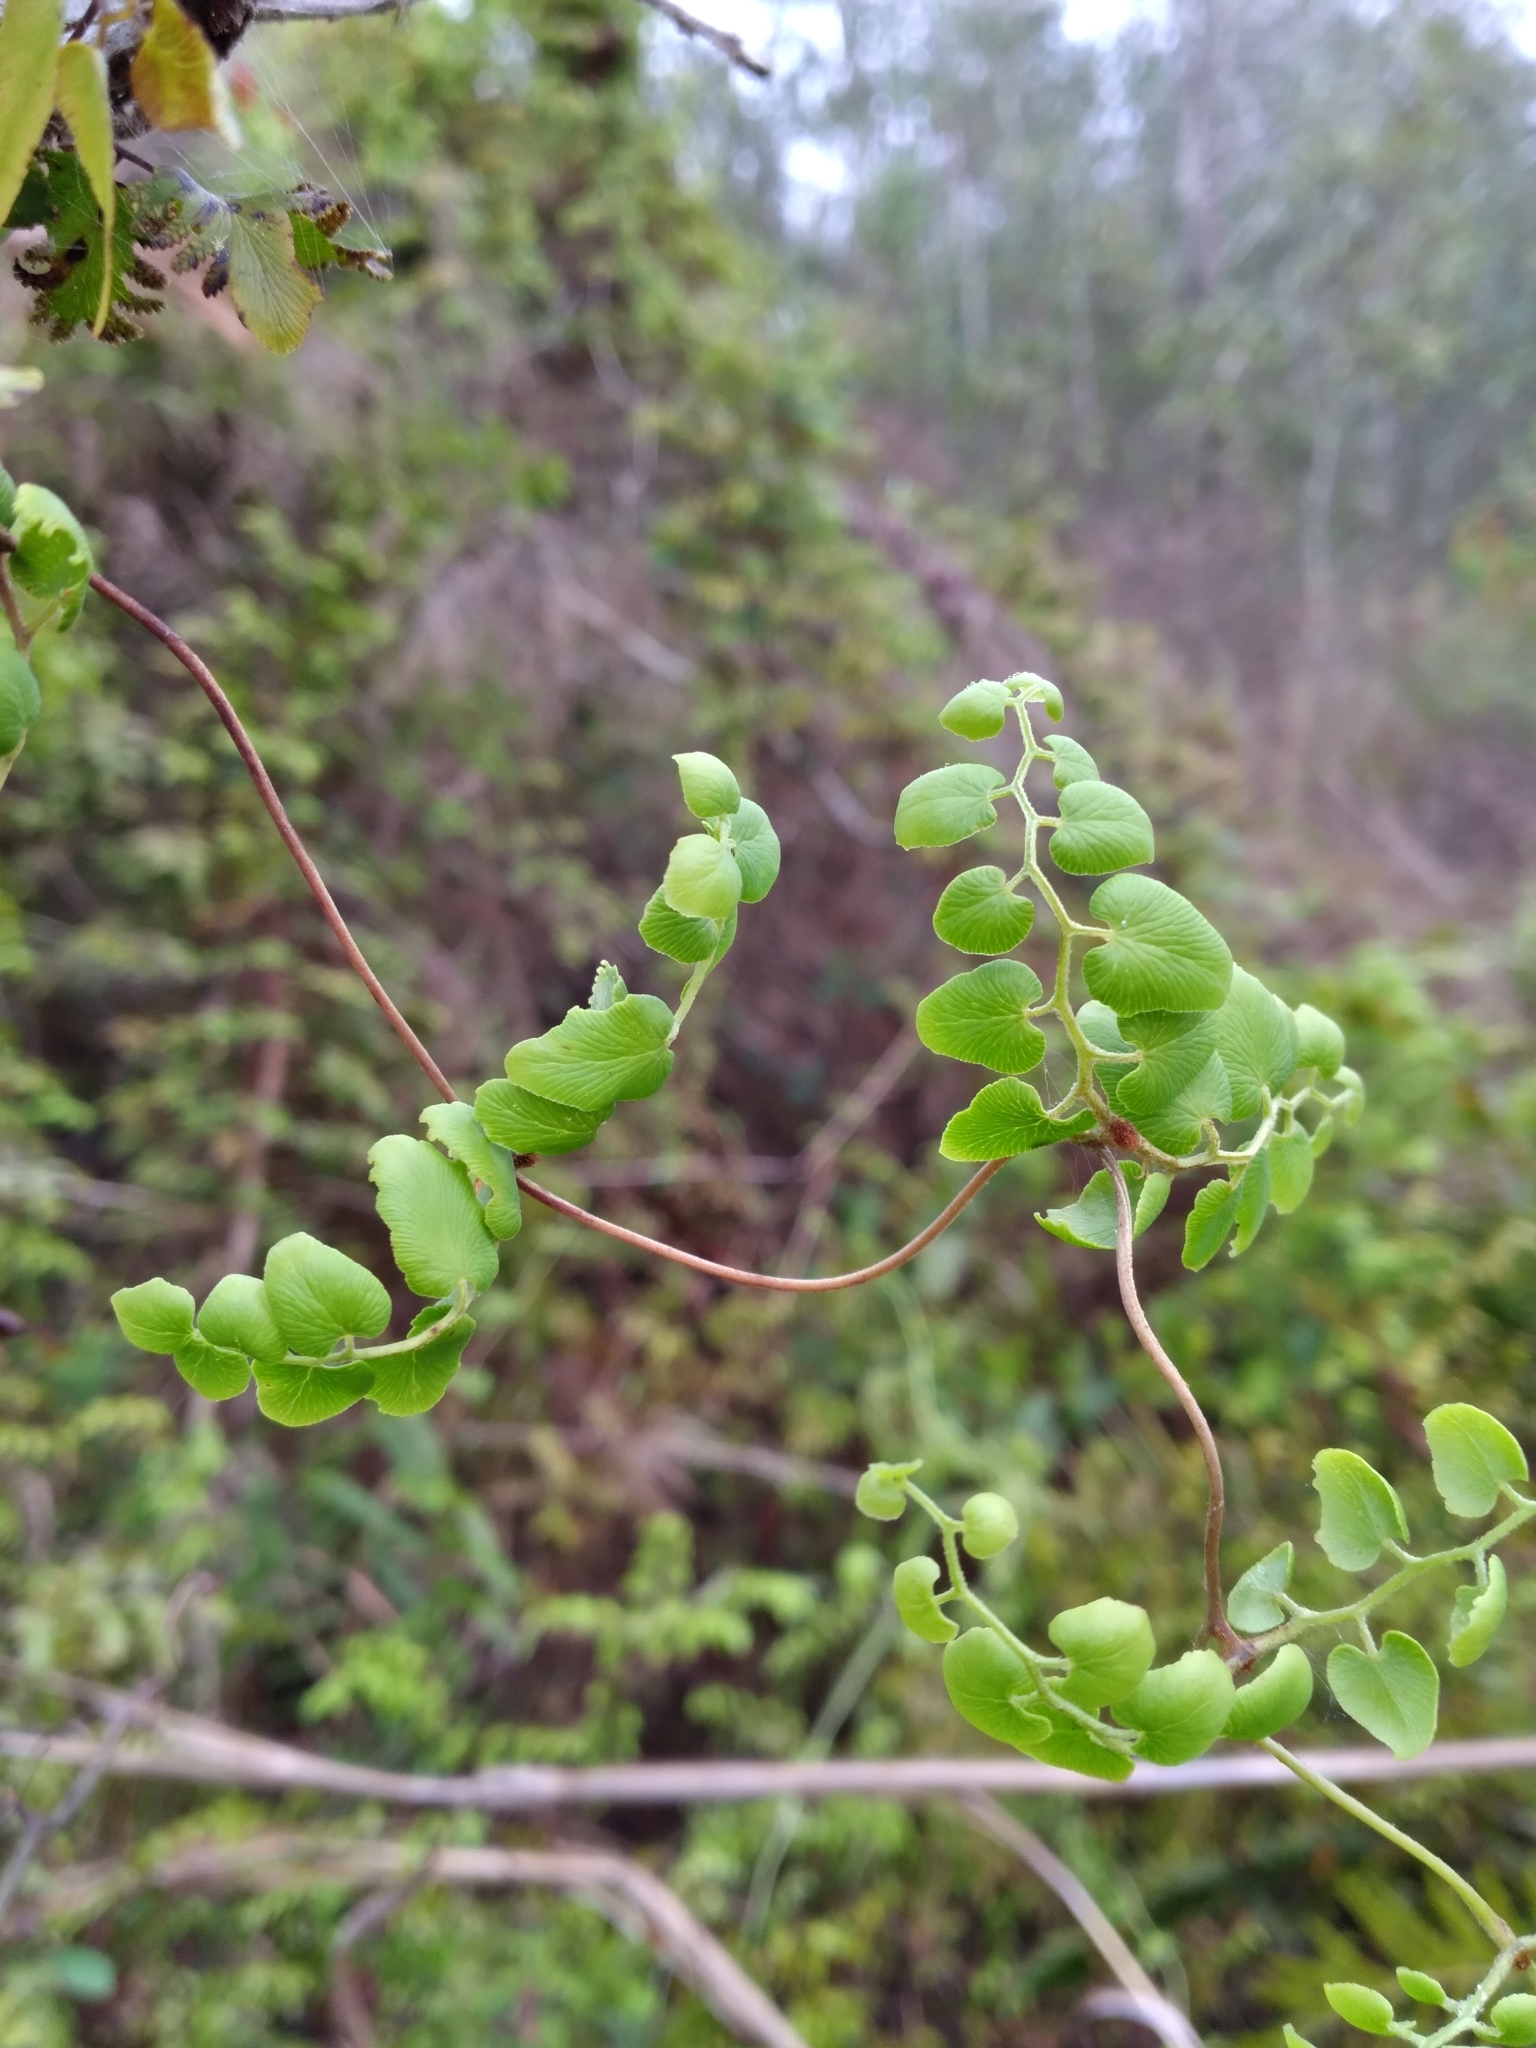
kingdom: Plantae
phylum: Tracheophyta
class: Polypodiopsida
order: Schizaeales
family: Lygodiaceae
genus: Lygodium
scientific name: Lygodium microphyllum
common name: Small-leaf climbing fern
